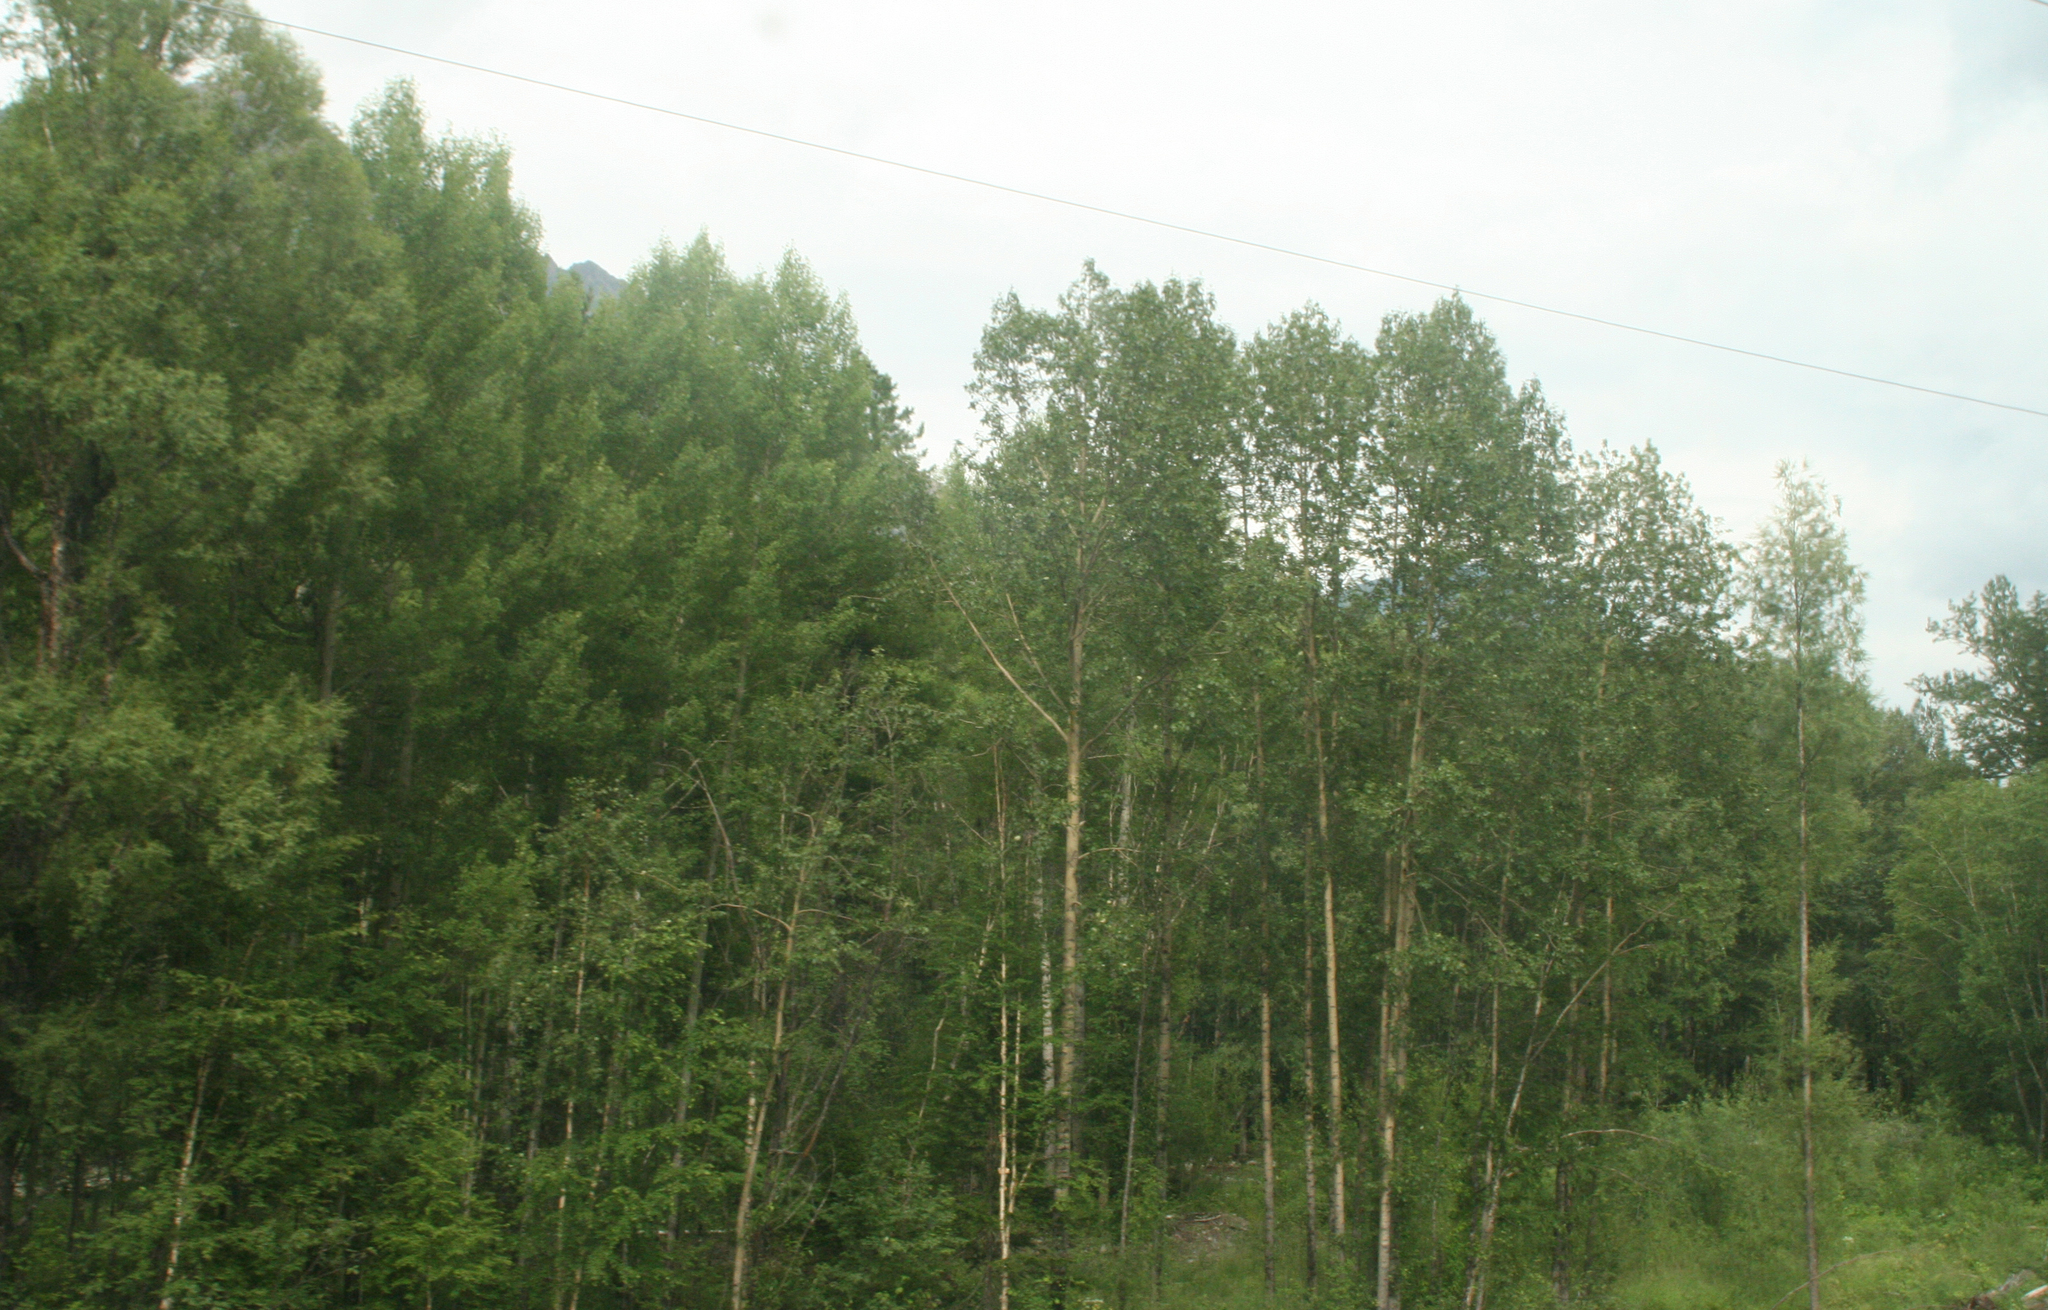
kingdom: Plantae
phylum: Tracheophyta
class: Magnoliopsida
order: Malpighiales
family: Salicaceae
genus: Populus
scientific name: Populus tremula
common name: European aspen
